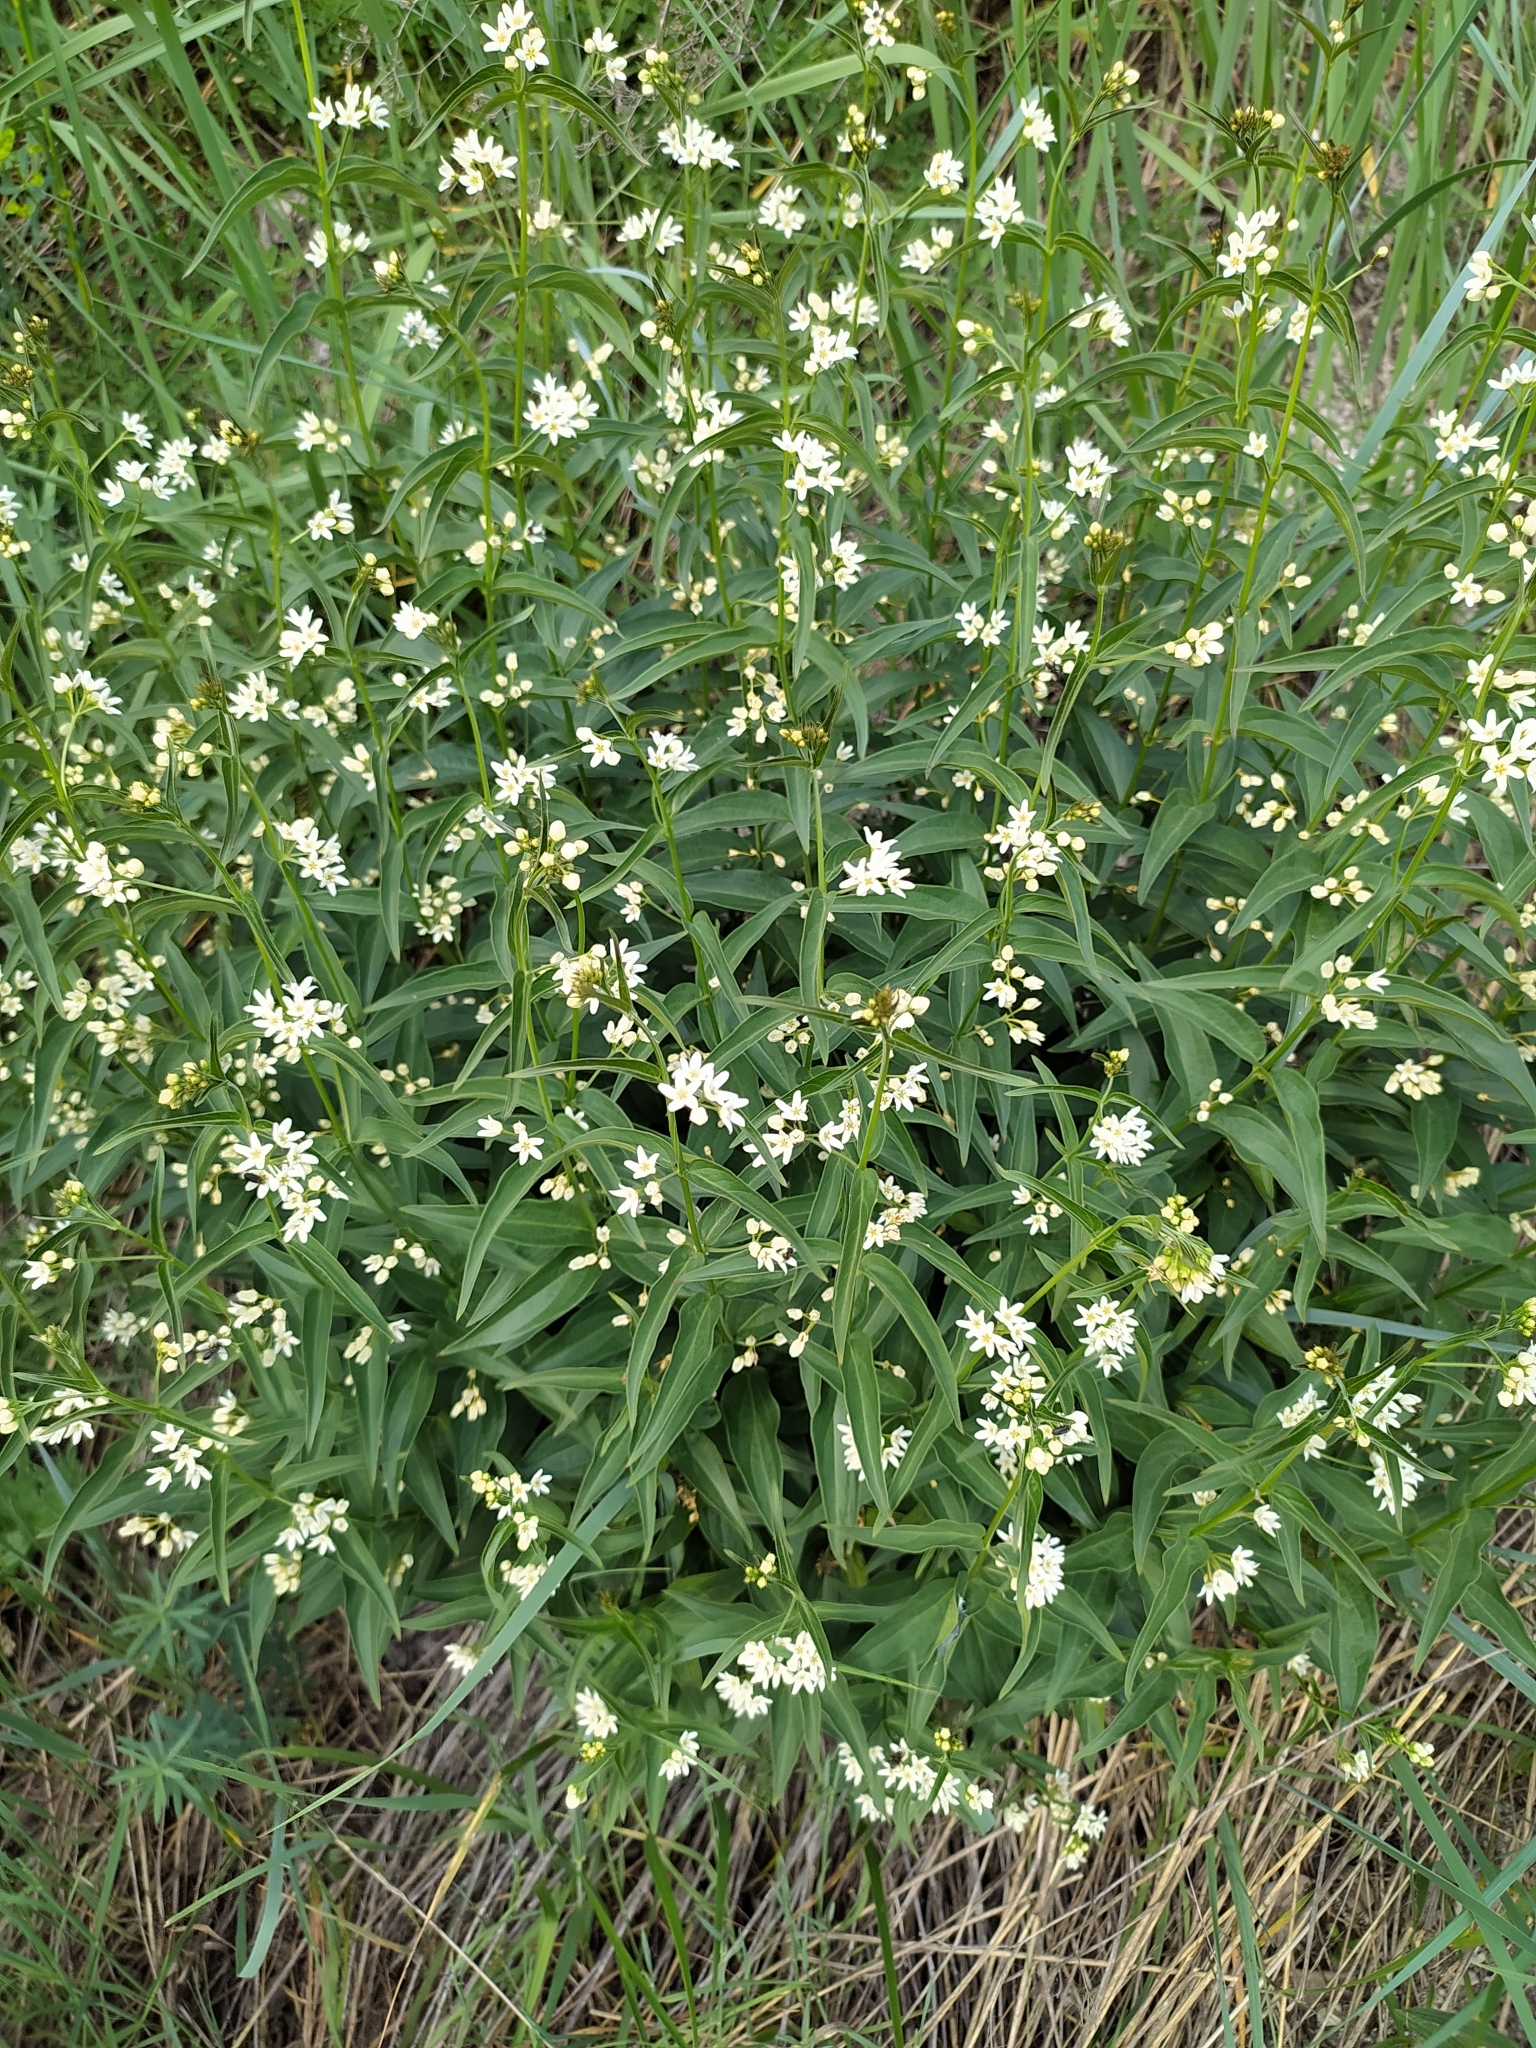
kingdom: Plantae
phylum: Tracheophyta
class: Magnoliopsida
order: Gentianales
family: Apocynaceae
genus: Vincetoxicum
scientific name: Vincetoxicum hirundinaria
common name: White swallowwort
